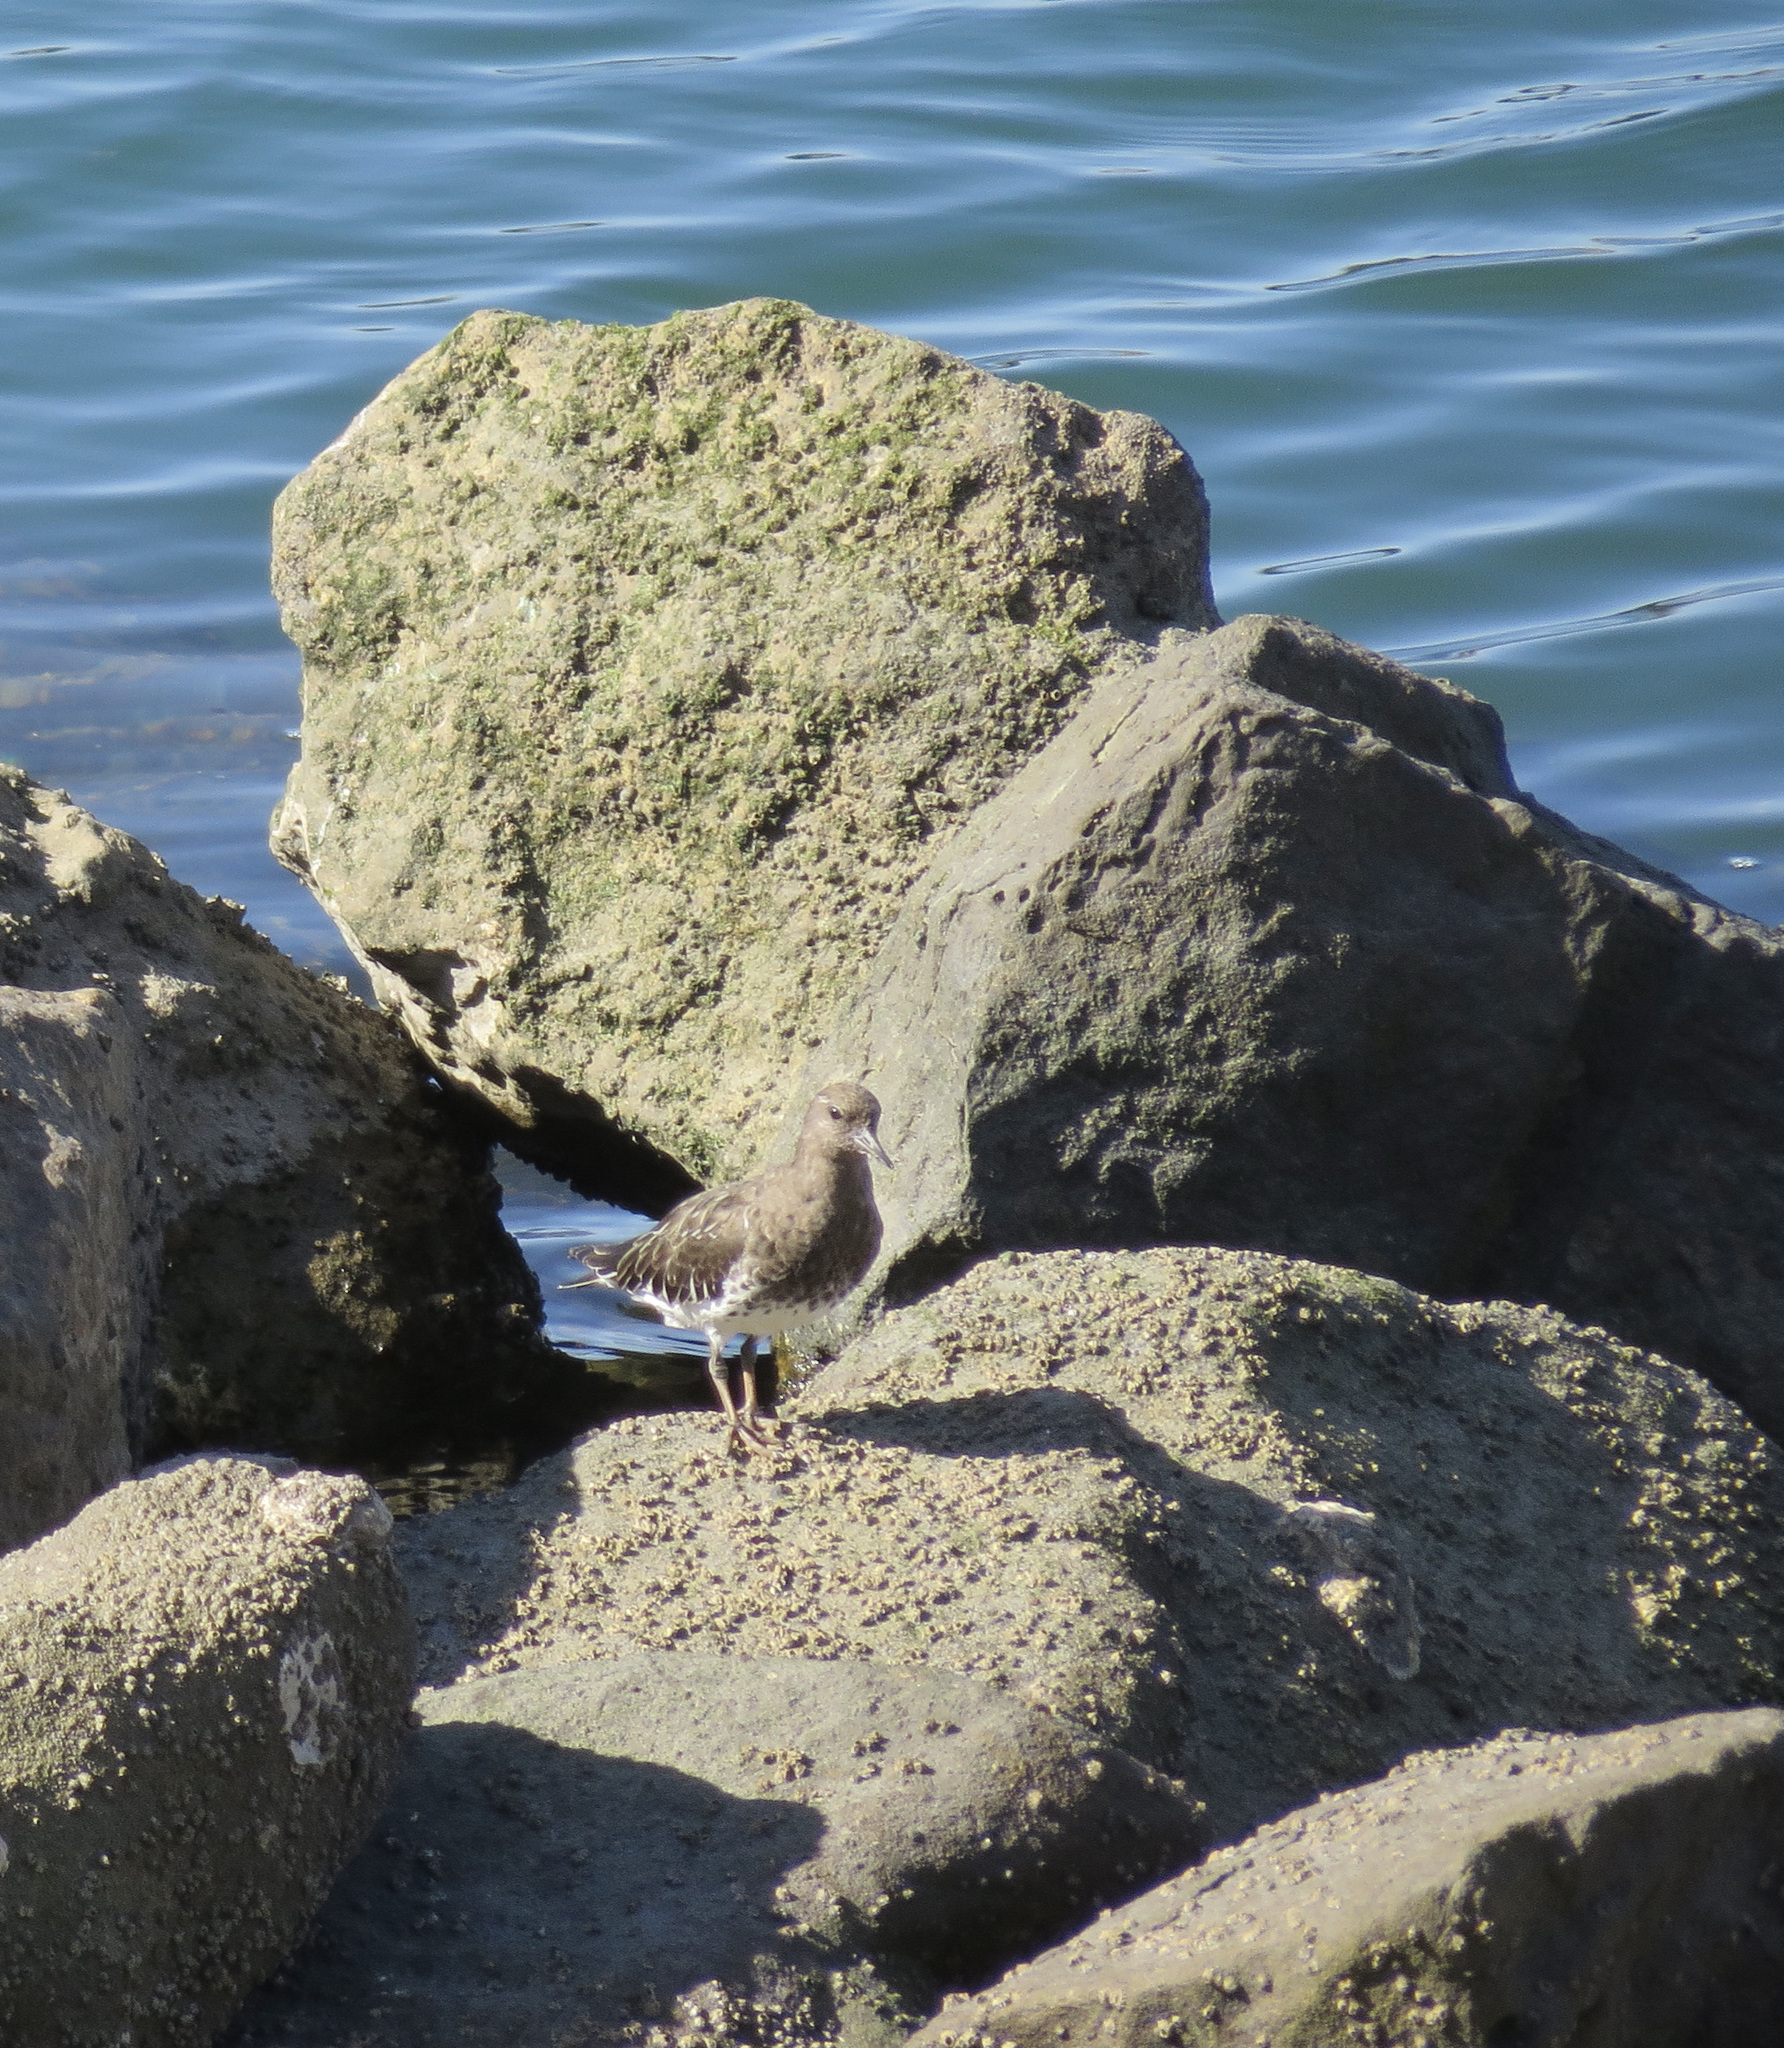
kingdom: Animalia
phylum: Chordata
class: Aves
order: Charadriiformes
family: Scolopacidae
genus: Arenaria
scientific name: Arenaria melanocephala
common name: Black turnstone
